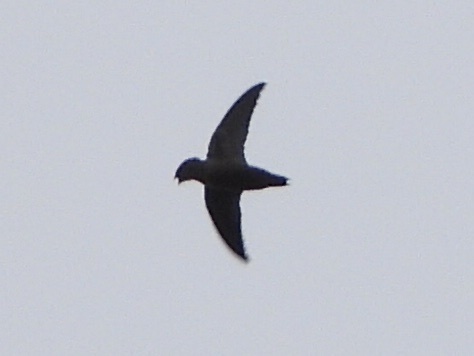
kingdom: Animalia
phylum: Chordata
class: Aves
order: Apodiformes
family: Apodidae
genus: Chaetura
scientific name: Chaetura vauxi
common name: Vaux's swift
